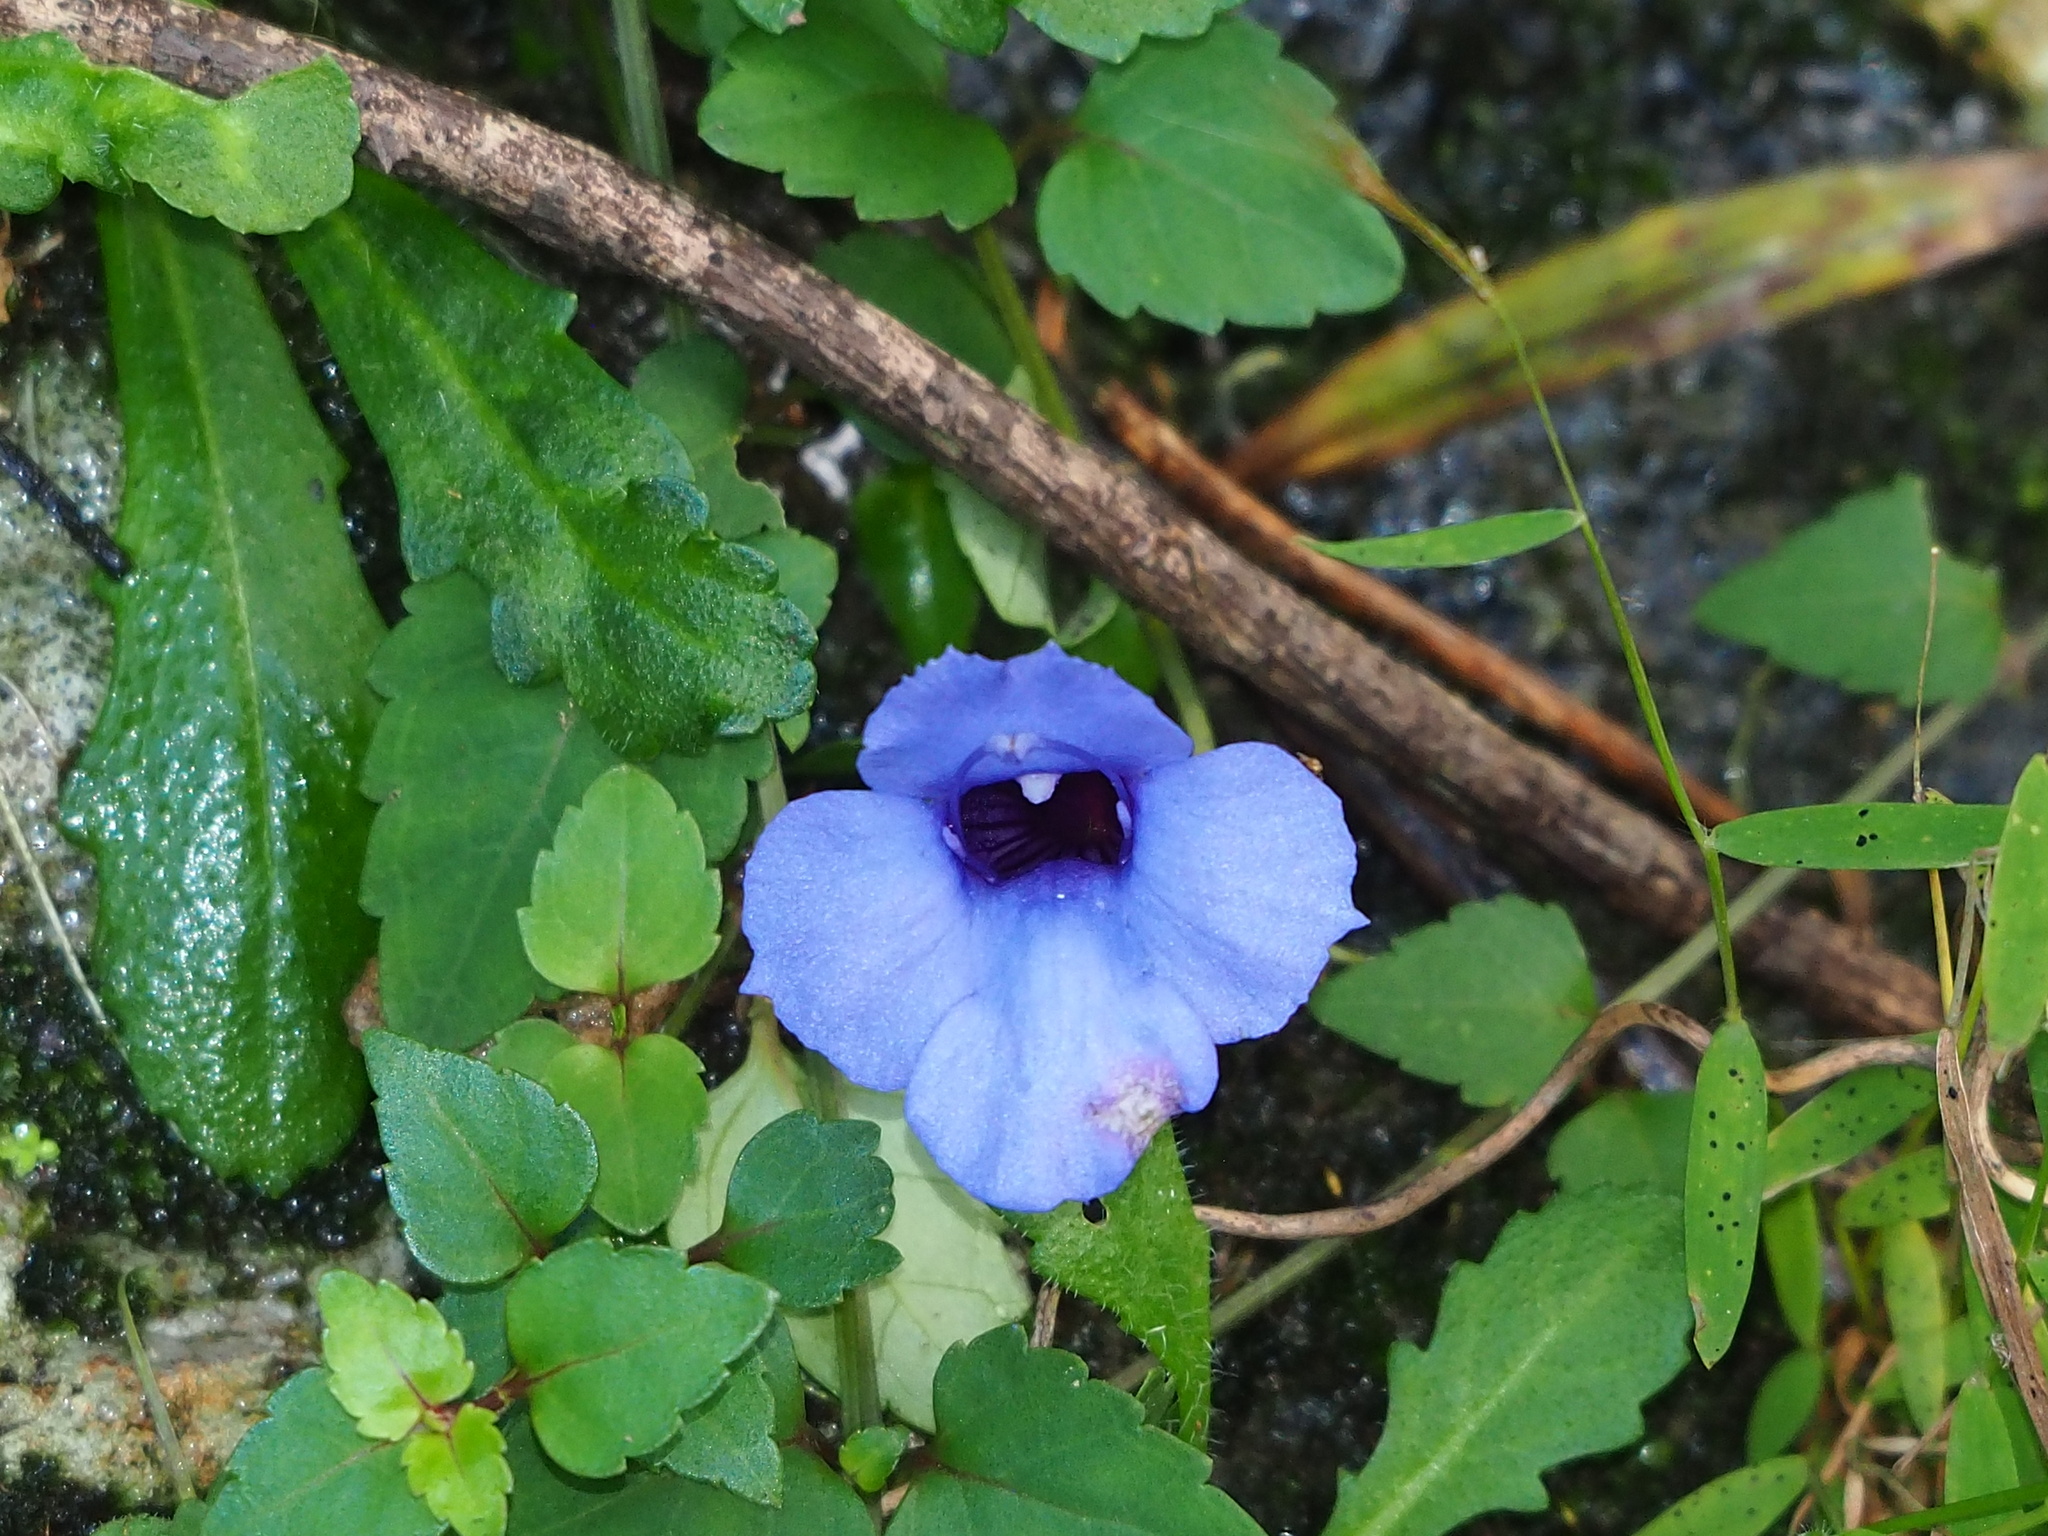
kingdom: Plantae
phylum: Tracheophyta
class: Magnoliopsida
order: Lamiales
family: Linderniaceae
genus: Torenia
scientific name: Torenia concolor
